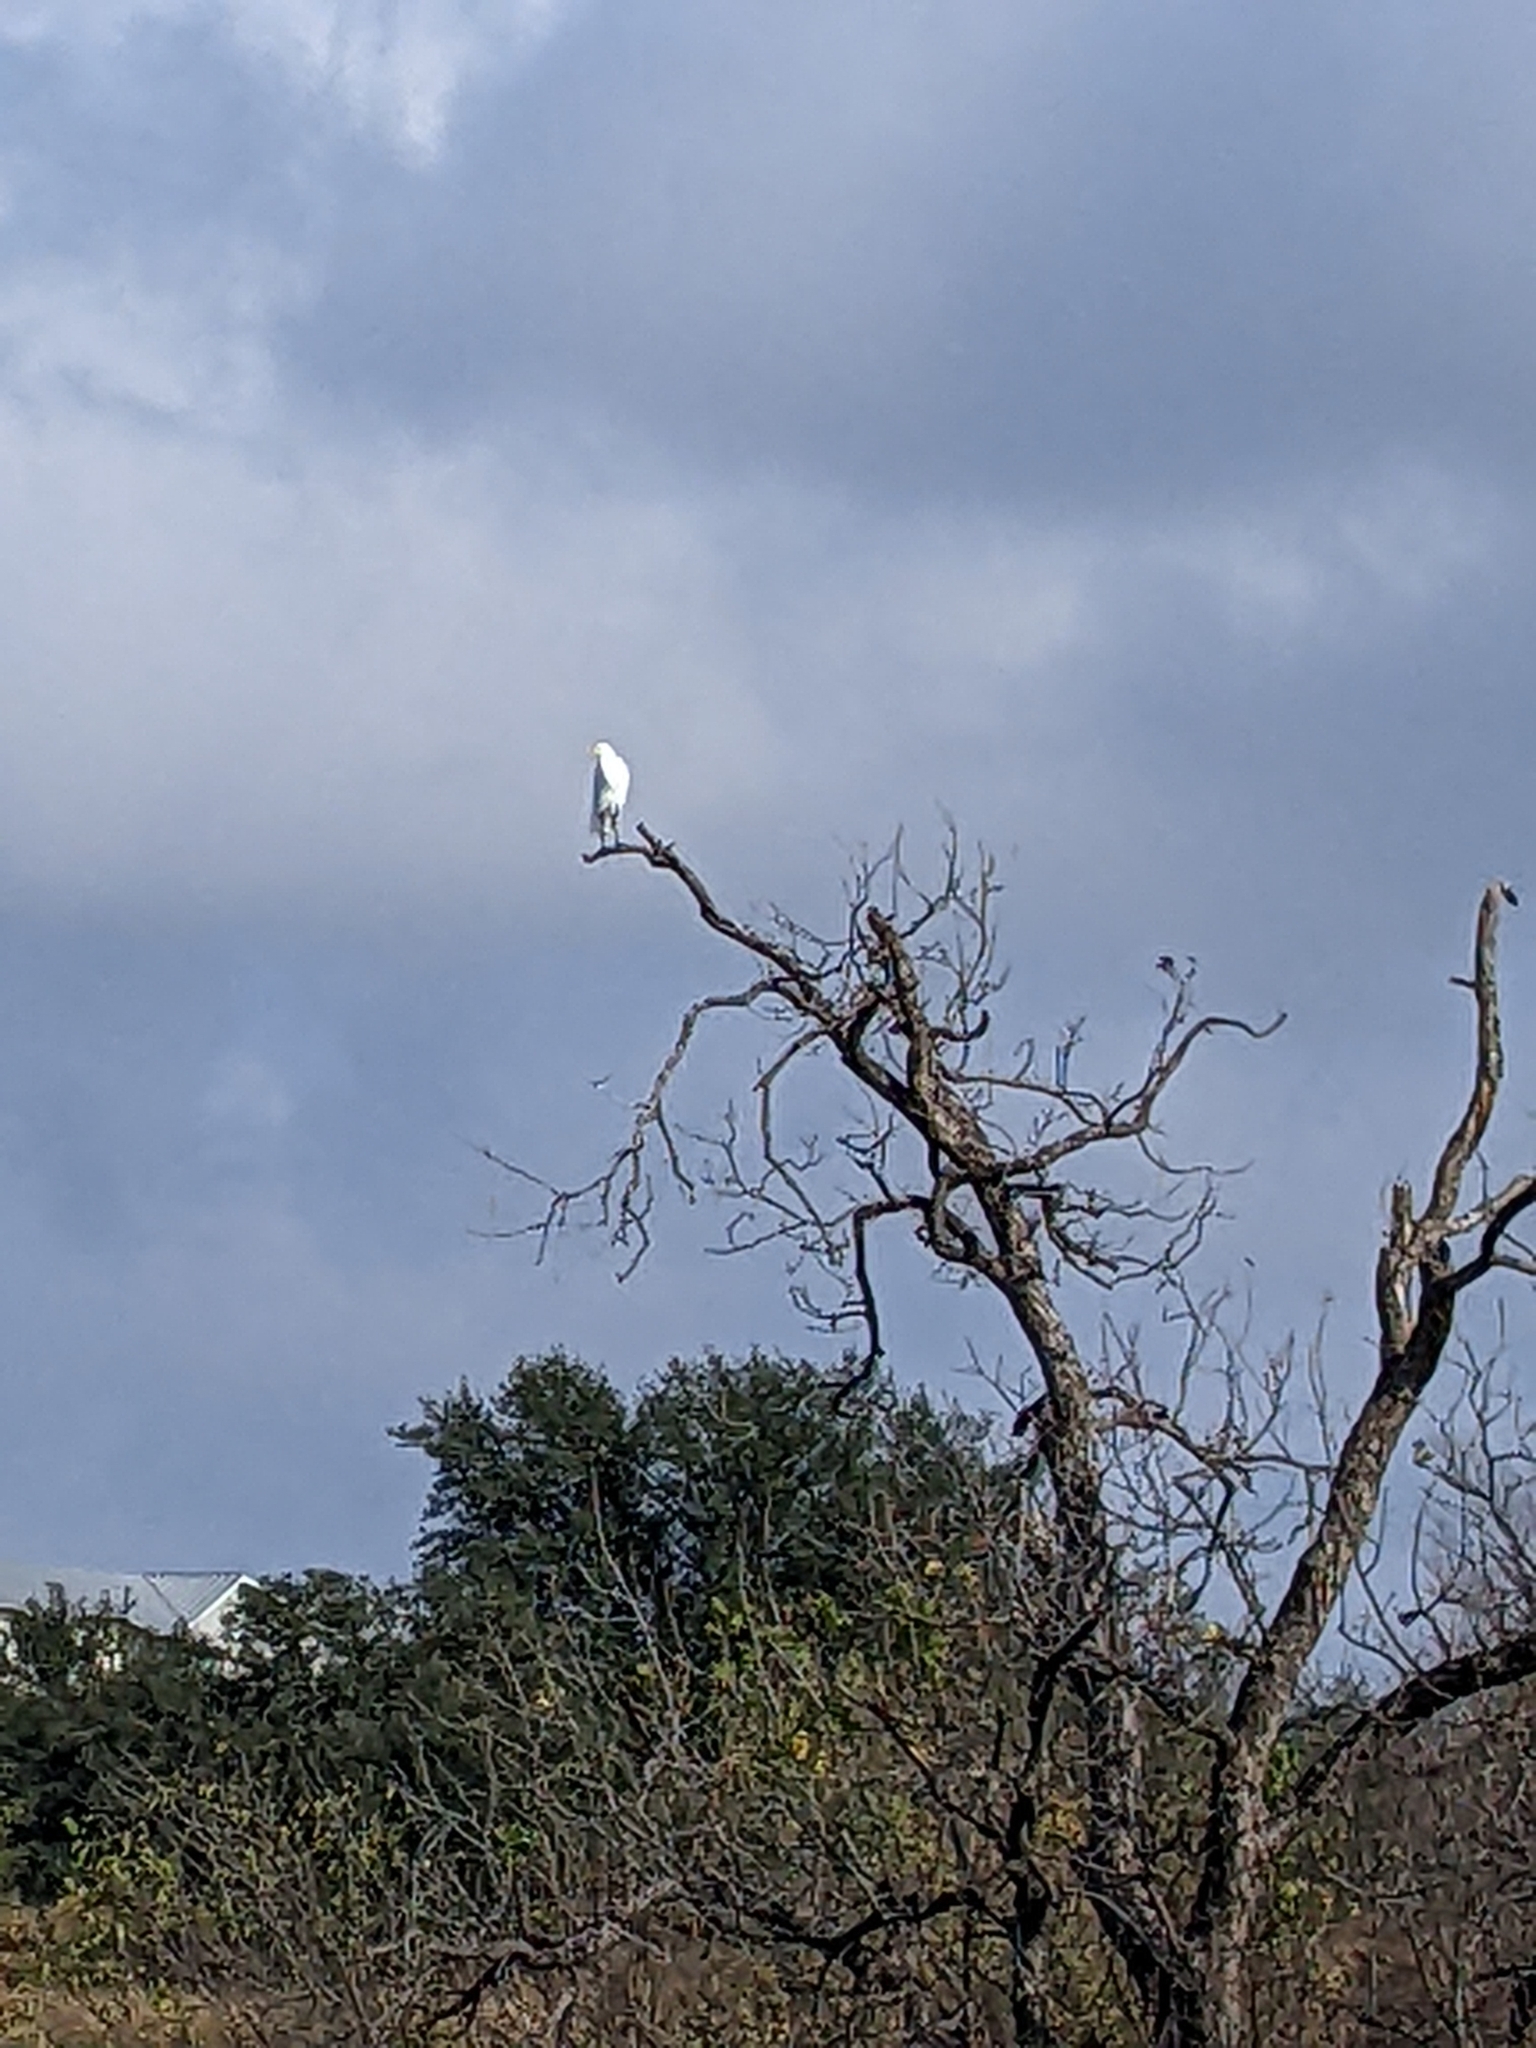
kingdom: Animalia
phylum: Chordata
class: Aves
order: Pelecaniformes
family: Ardeidae
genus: Ardea
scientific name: Ardea alba
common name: Great egret
